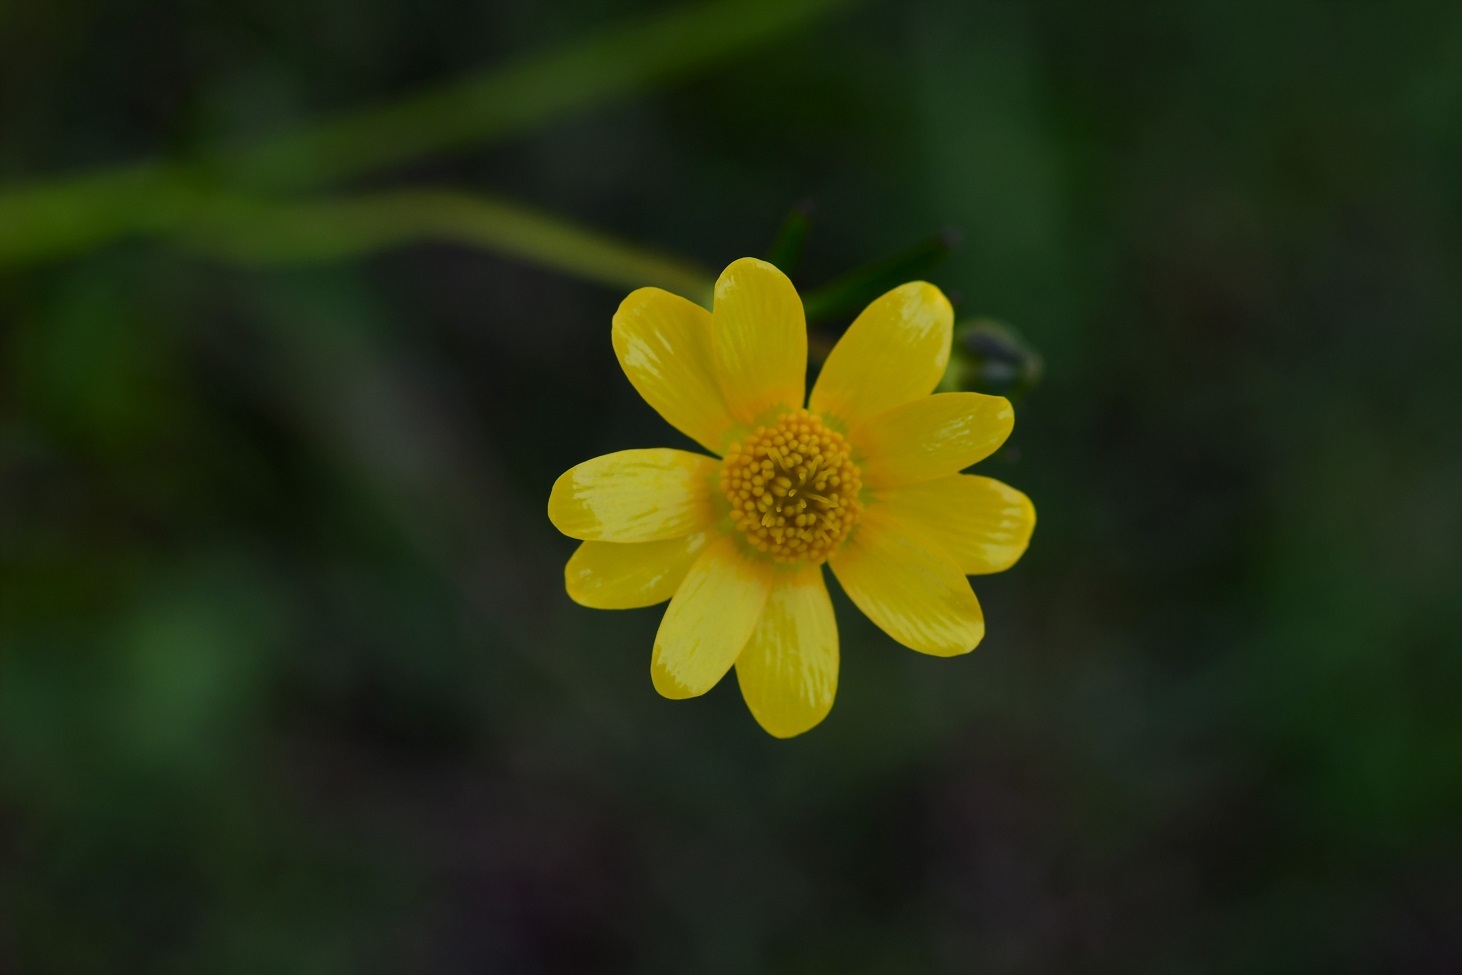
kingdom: Plantae
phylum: Tracheophyta
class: Magnoliopsida
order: Ranunculales
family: Ranunculaceae
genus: Ranunculus
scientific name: Ranunculus petiolaris
